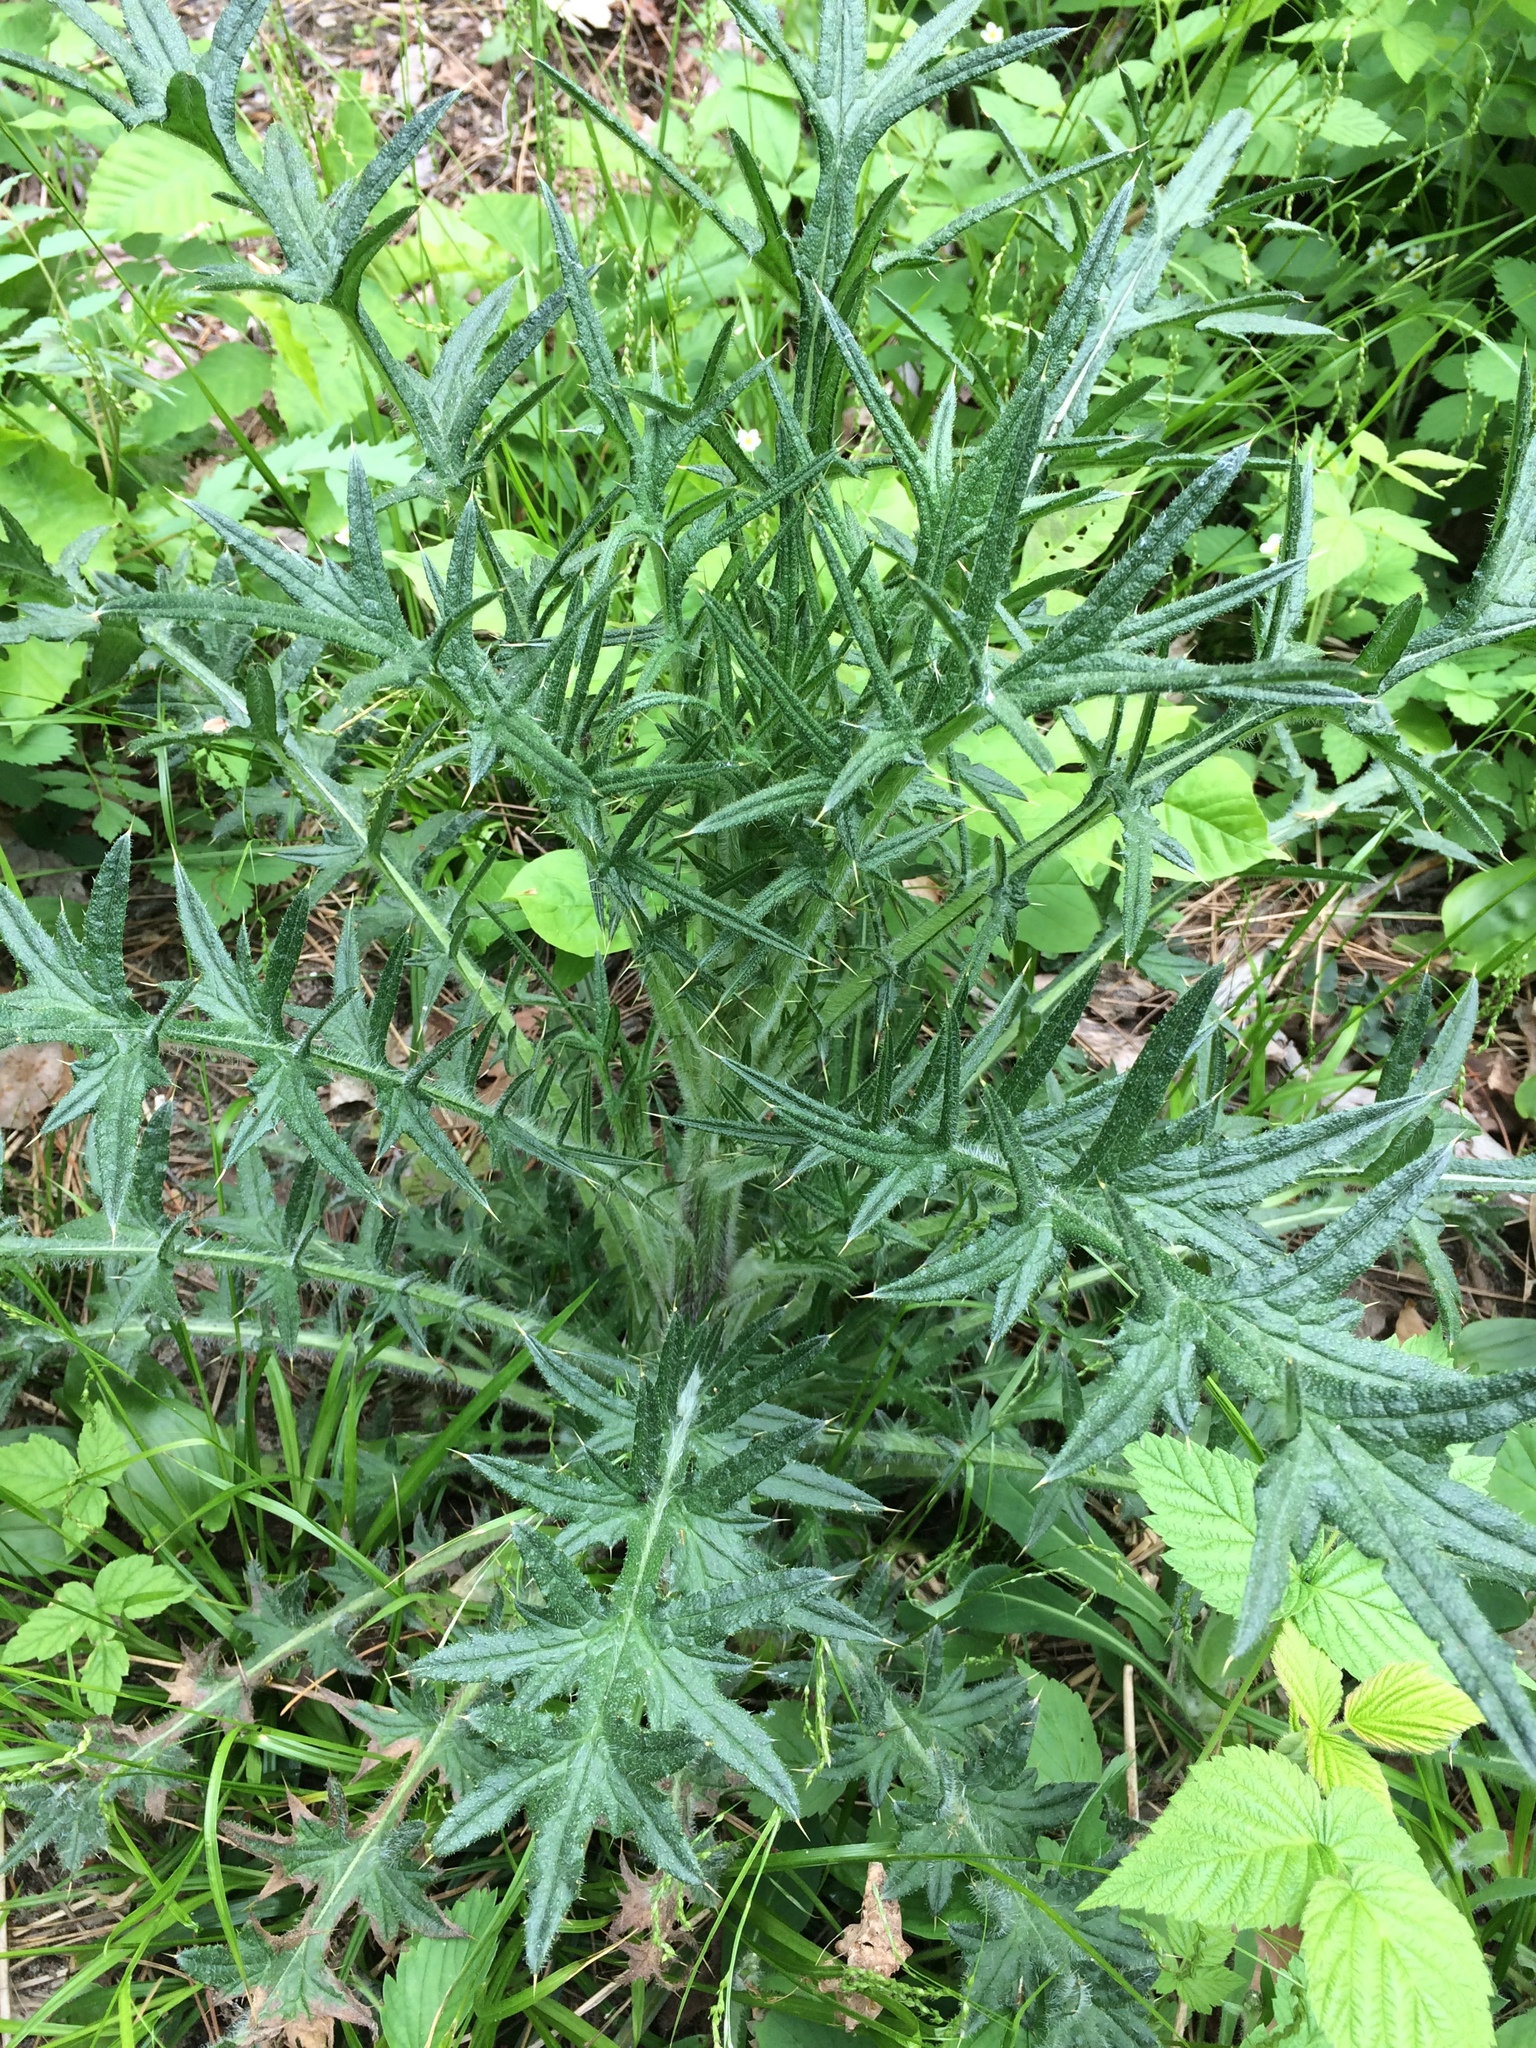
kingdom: Plantae
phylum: Tracheophyta
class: Magnoliopsida
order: Asterales
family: Asteraceae
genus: Cirsium
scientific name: Cirsium vulgare
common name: Bull thistle
